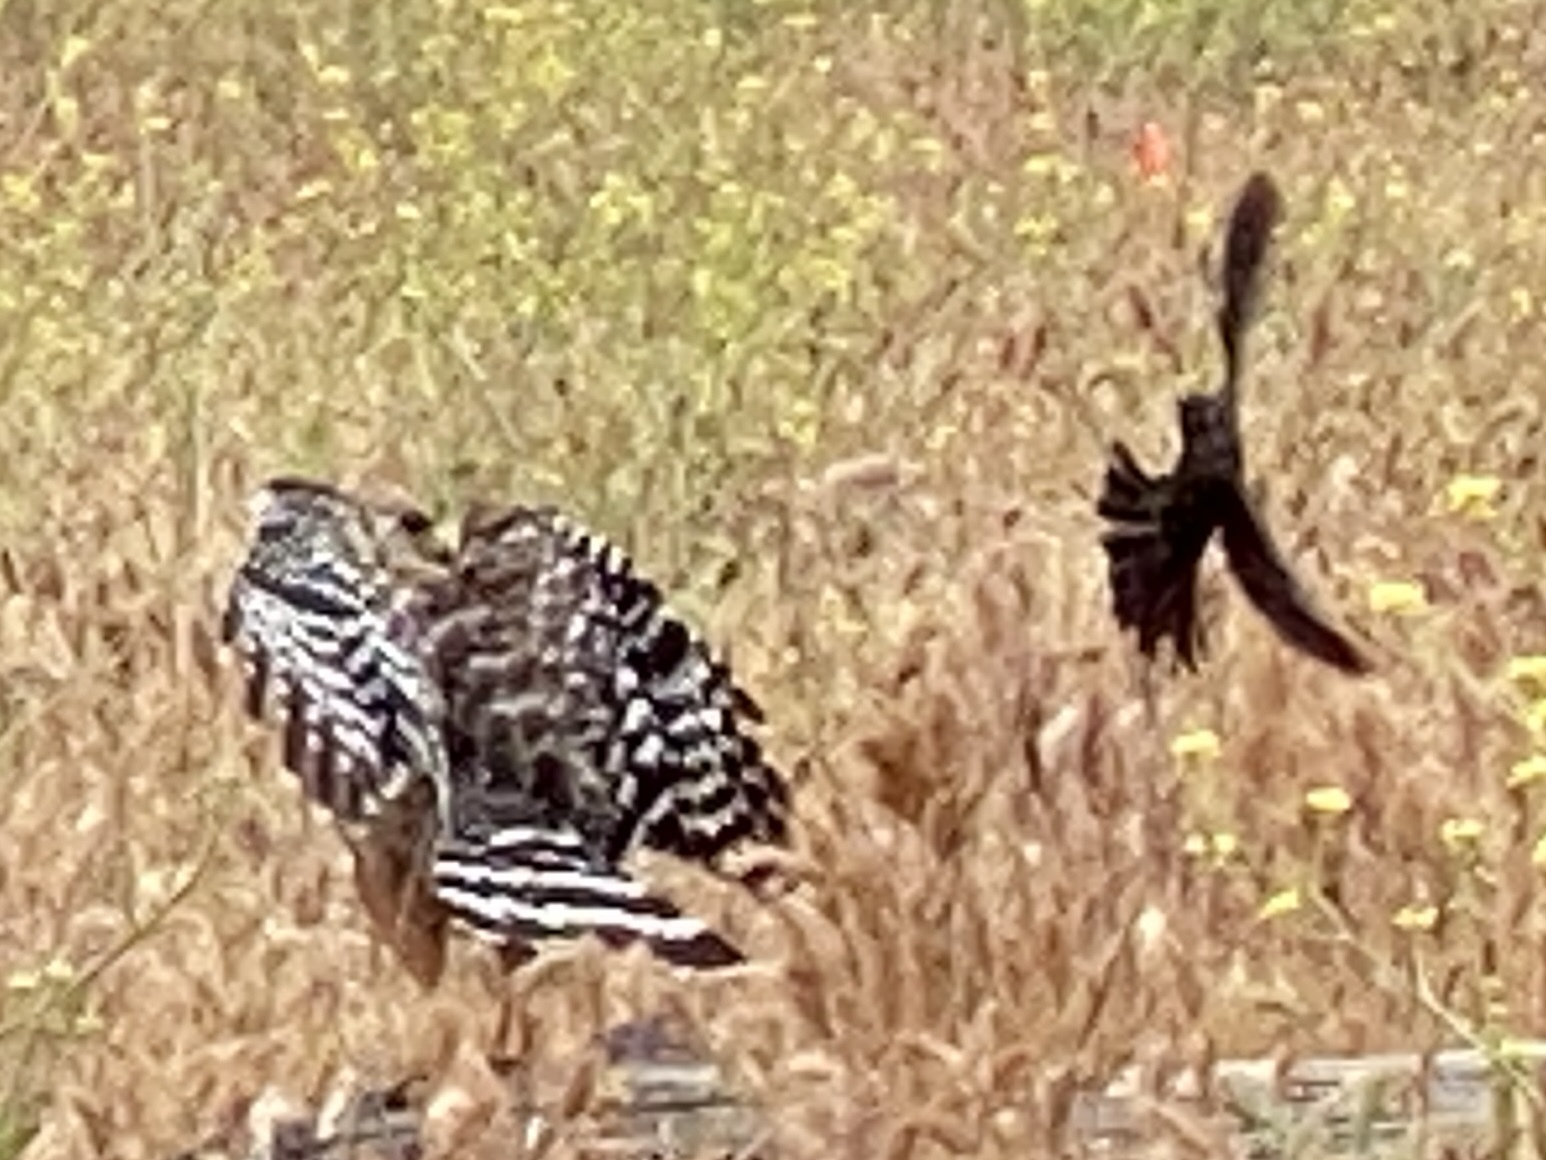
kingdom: Animalia
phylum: Chordata
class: Aves
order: Accipitriformes
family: Accipitridae
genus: Buteo
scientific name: Buteo lineatus
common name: Red-shouldered hawk
